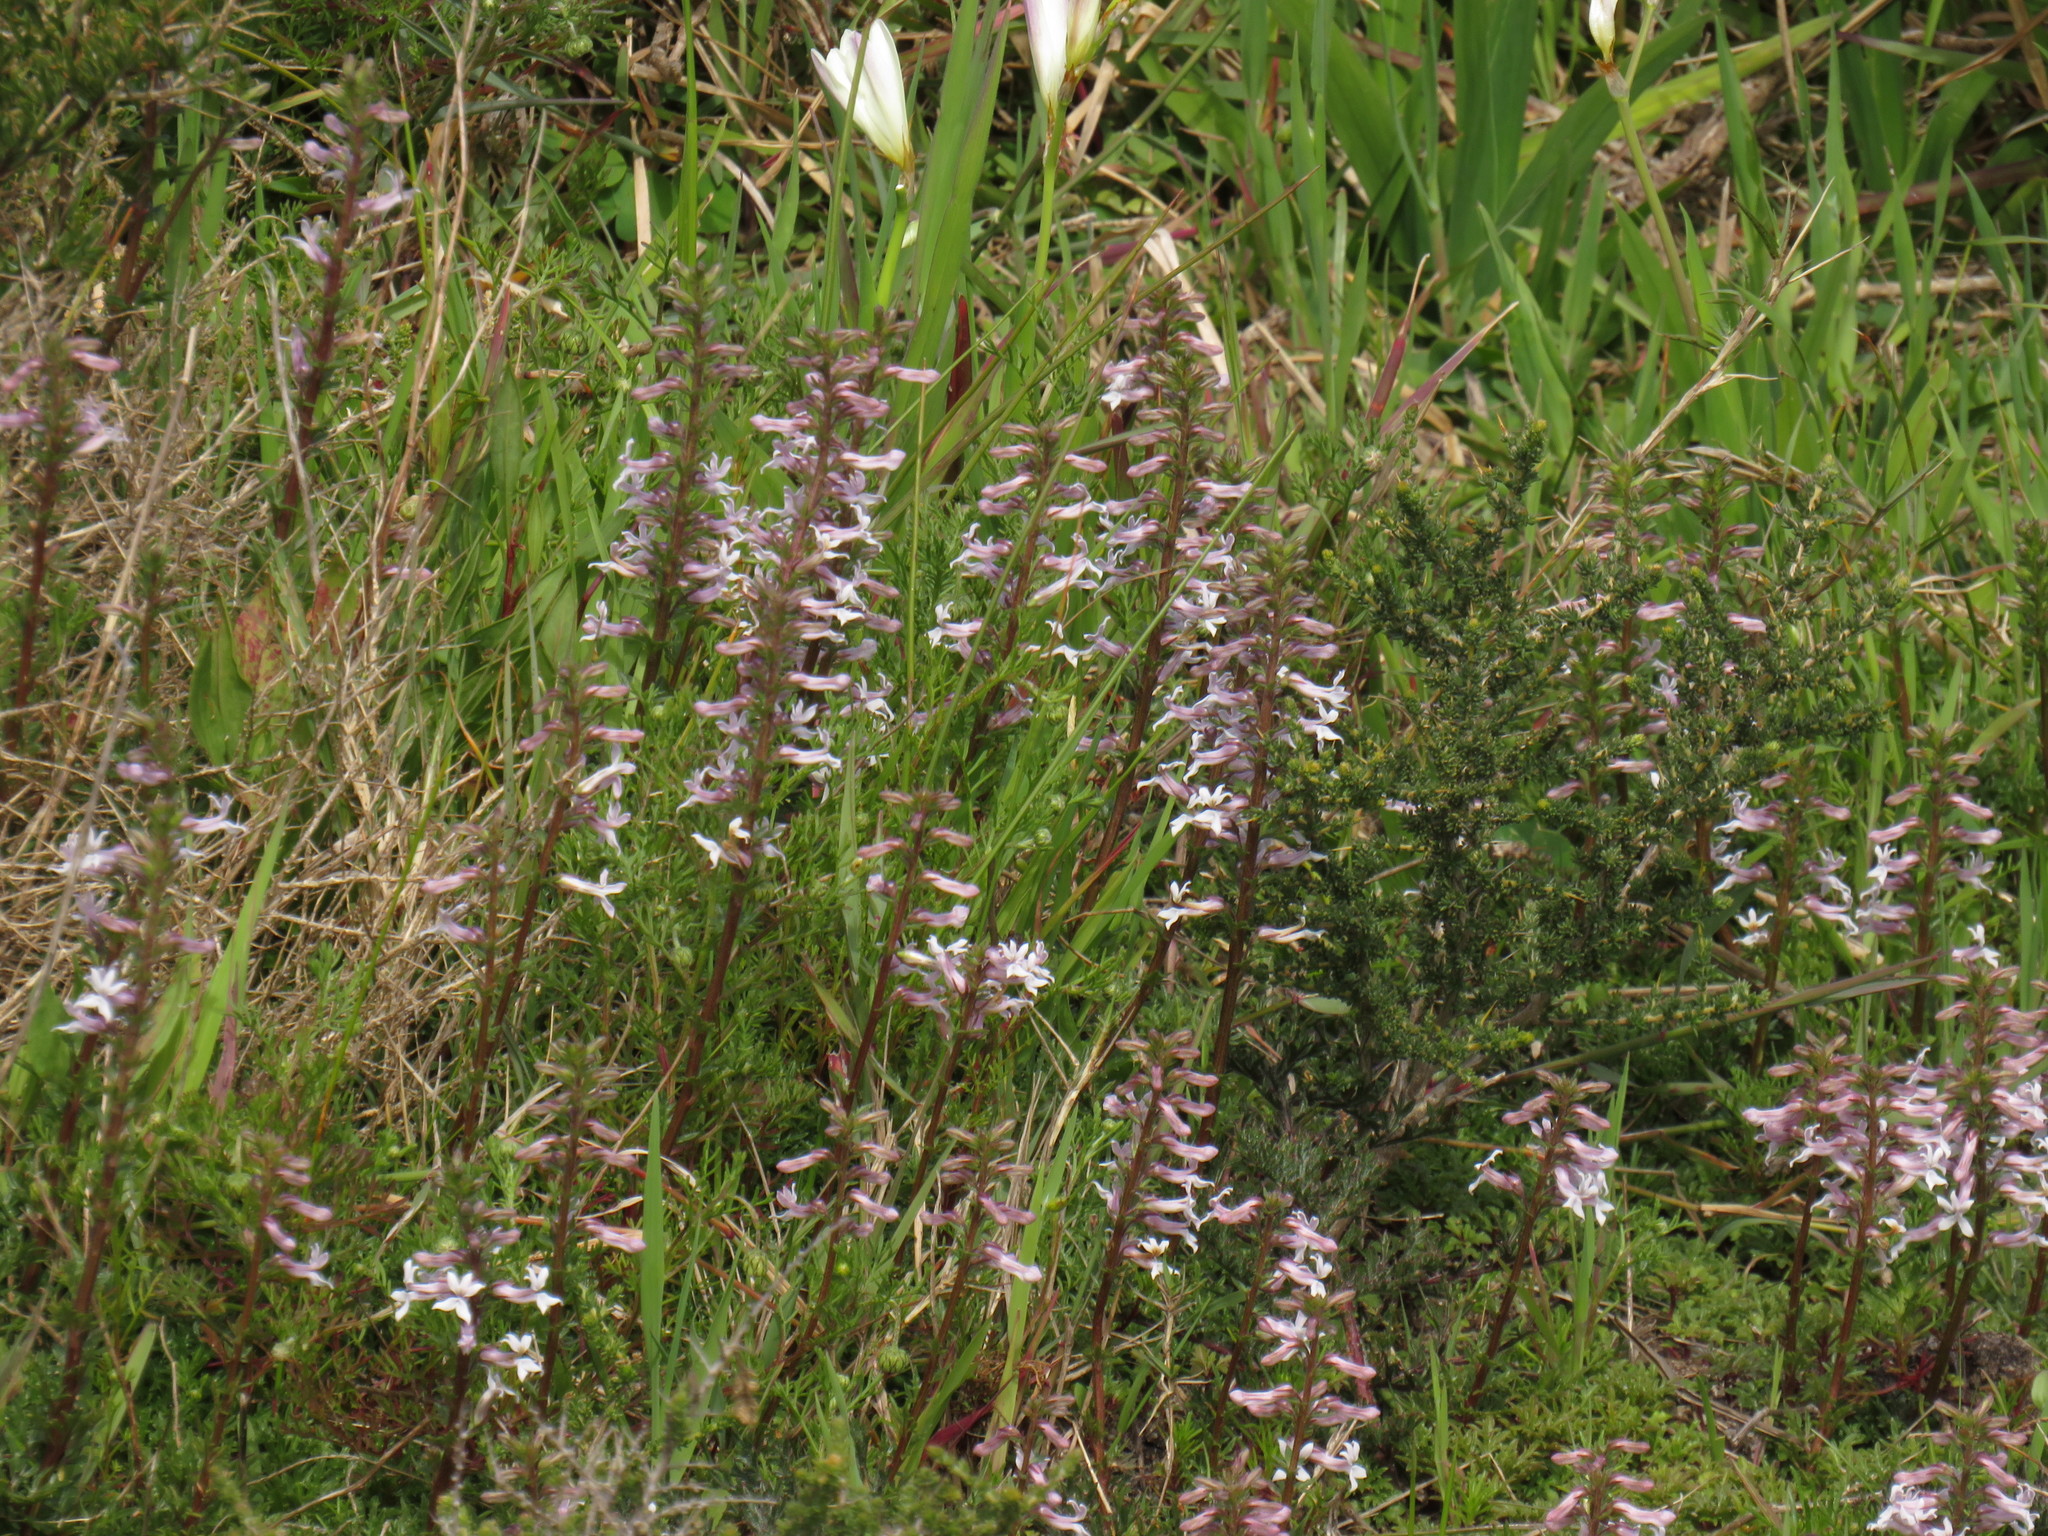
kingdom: Plantae
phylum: Tracheophyta
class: Magnoliopsida
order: Asterales
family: Campanulaceae
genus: Cyphia
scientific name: Cyphia bulbosa
